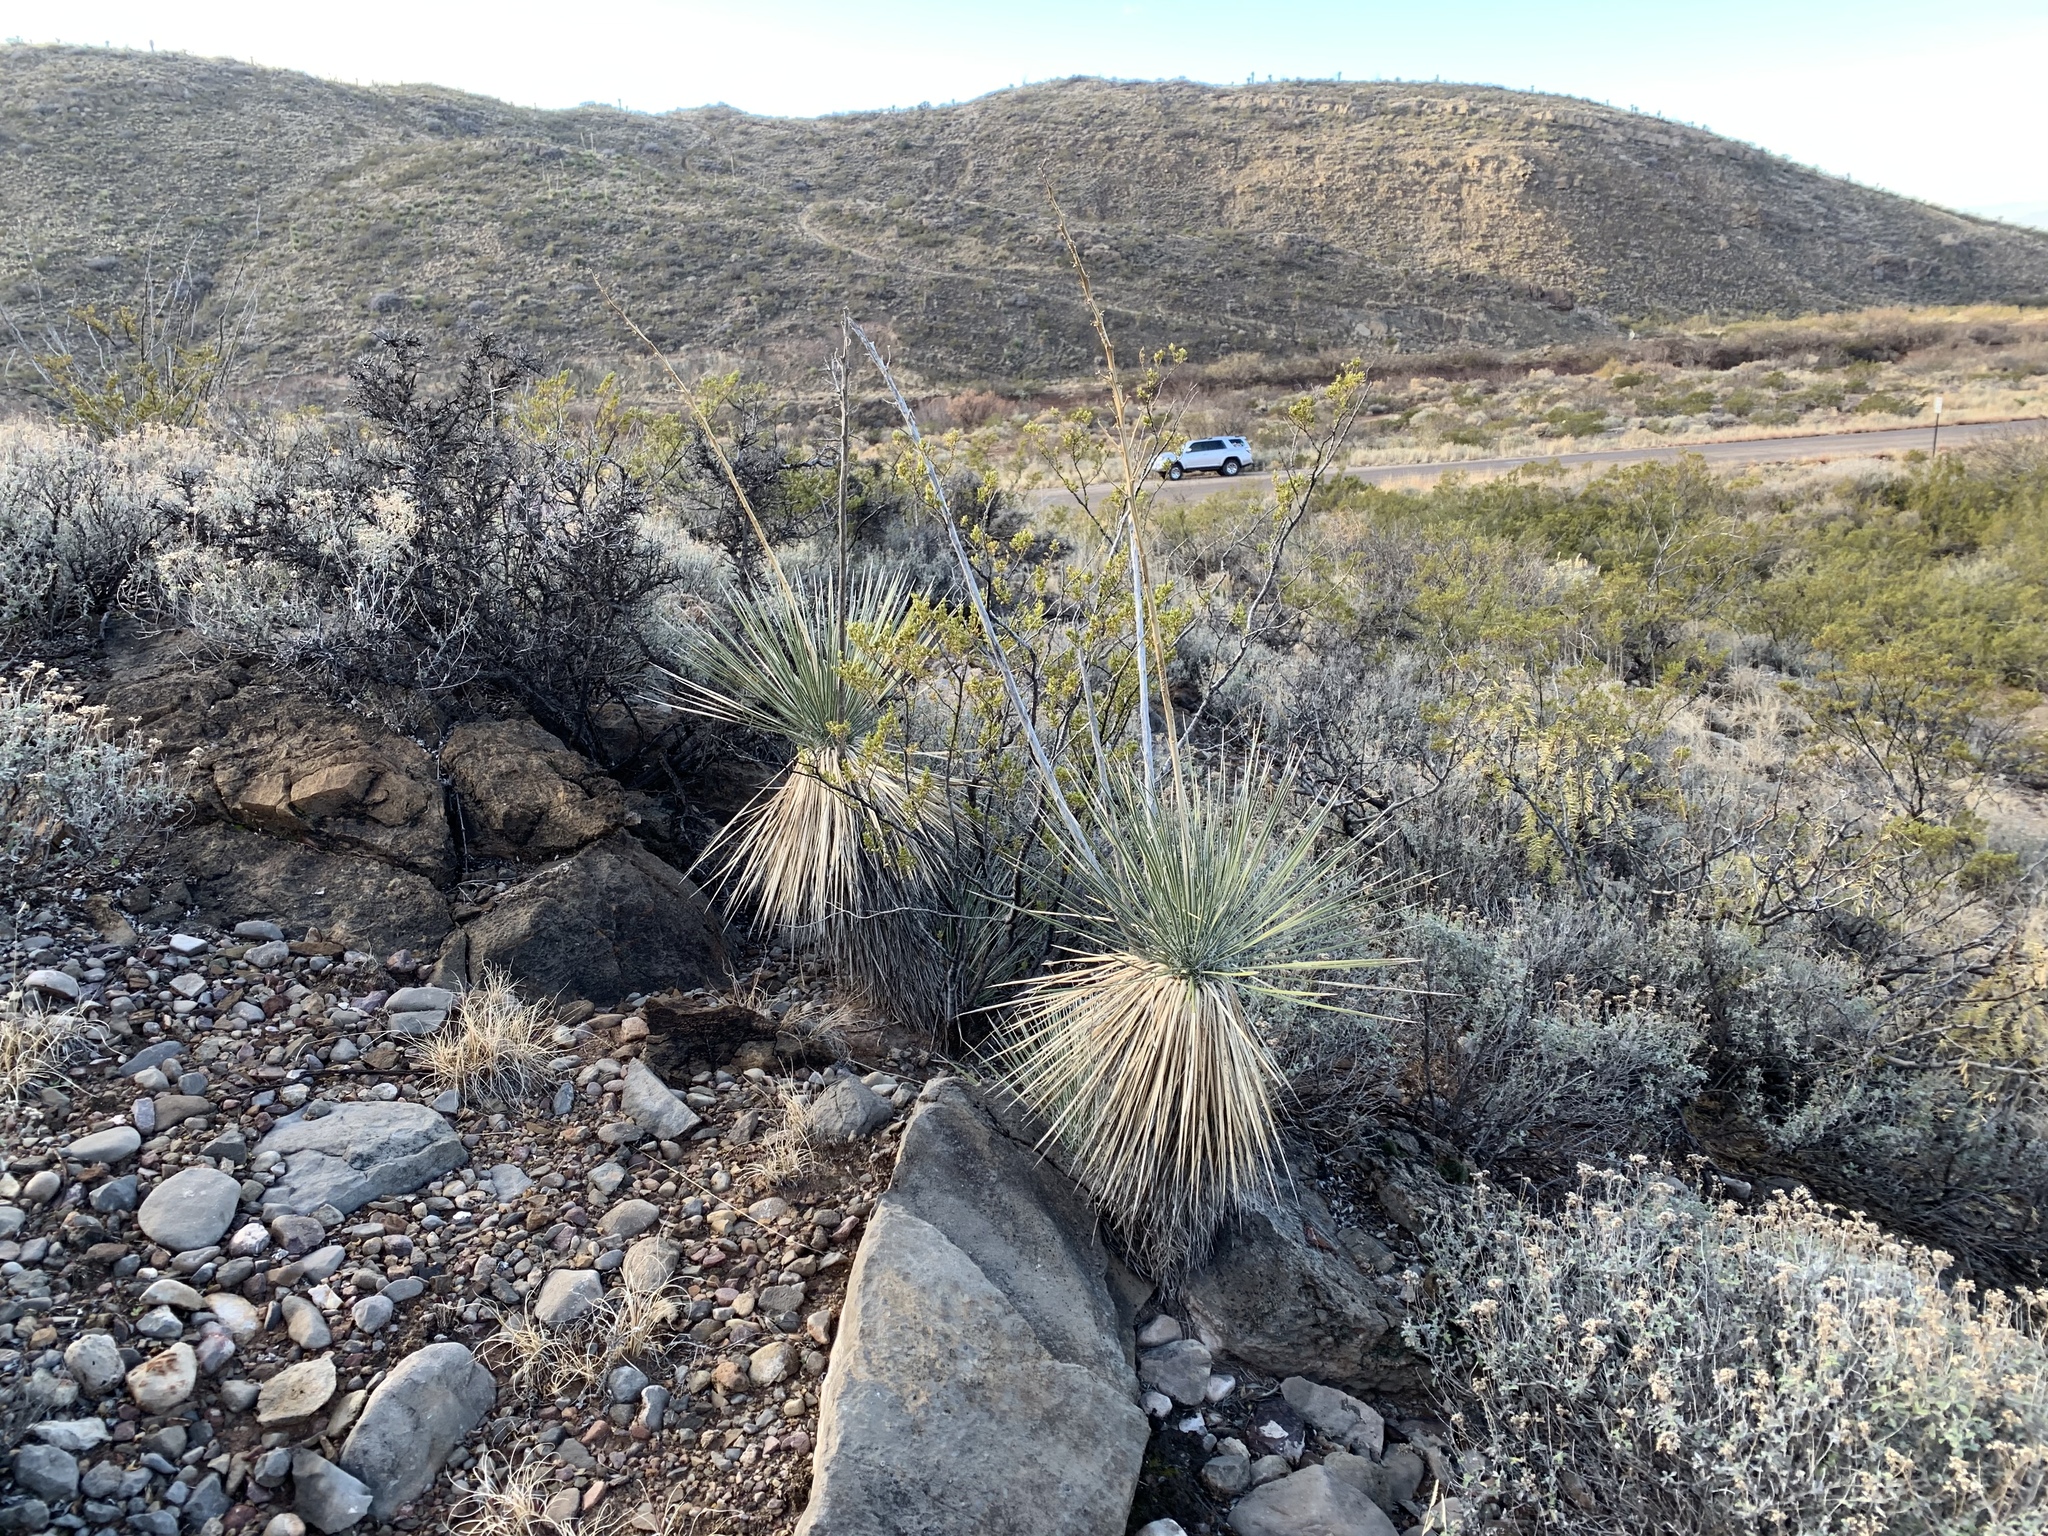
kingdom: Plantae
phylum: Tracheophyta
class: Liliopsida
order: Asparagales
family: Asparagaceae
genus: Yucca
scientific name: Yucca elata
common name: Palmella
